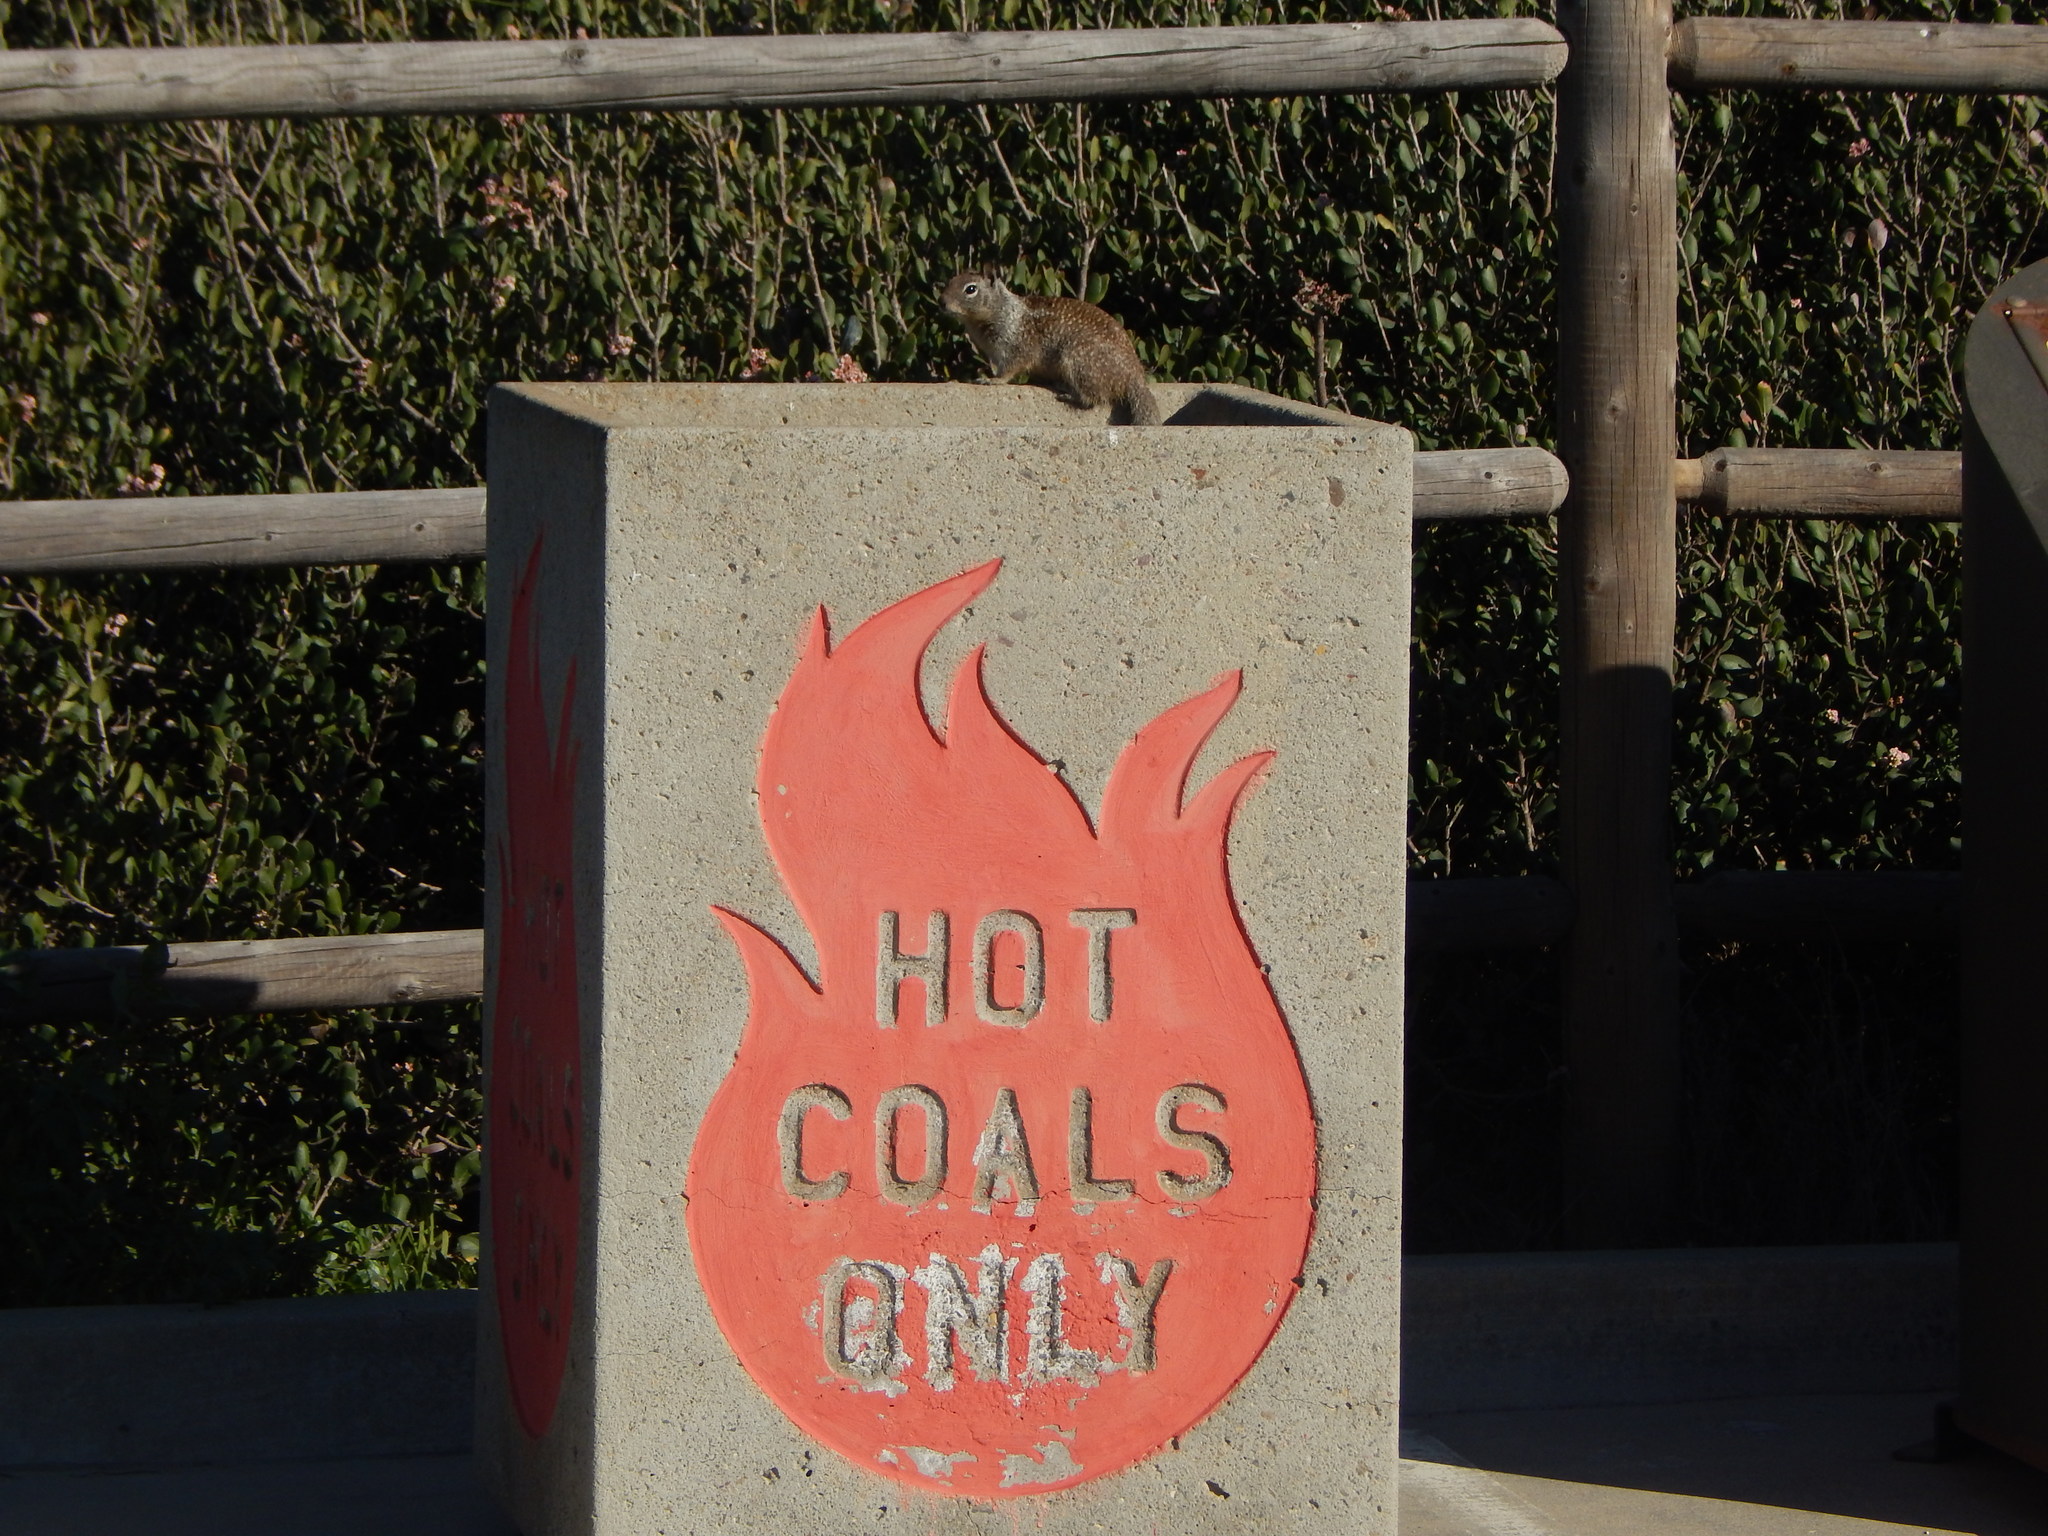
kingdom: Animalia
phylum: Chordata
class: Mammalia
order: Rodentia
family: Sciuridae
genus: Otospermophilus
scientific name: Otospermophilus beecheyi
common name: California ground squirrel
